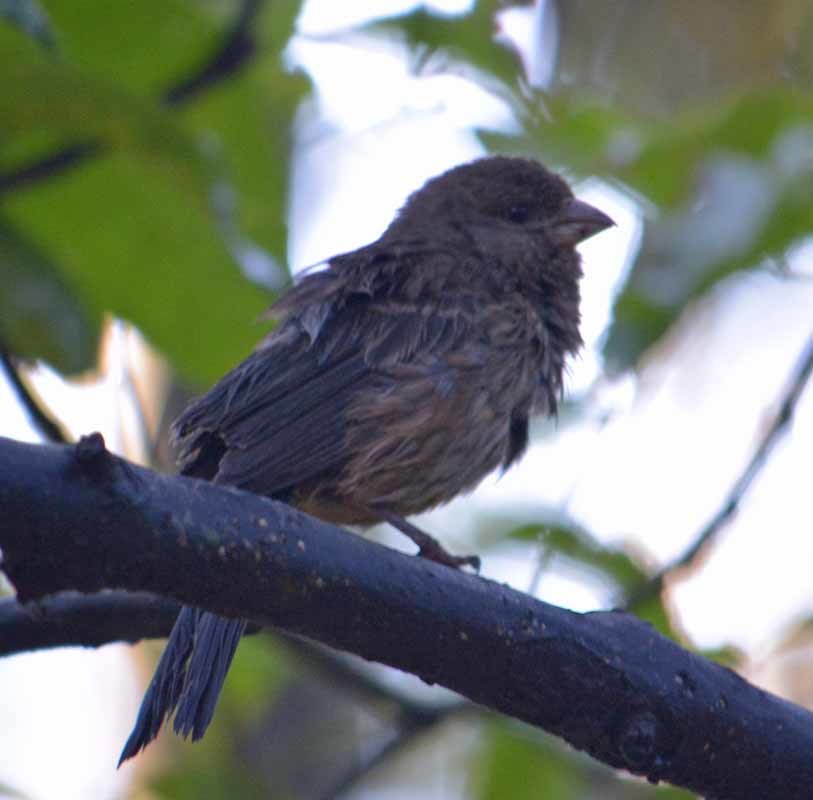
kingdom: Animalia
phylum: Chordata
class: Aves
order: Passeriformes
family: Fringillidae
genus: Haemorhous
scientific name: Haemorhous mexicanus
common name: House finch
